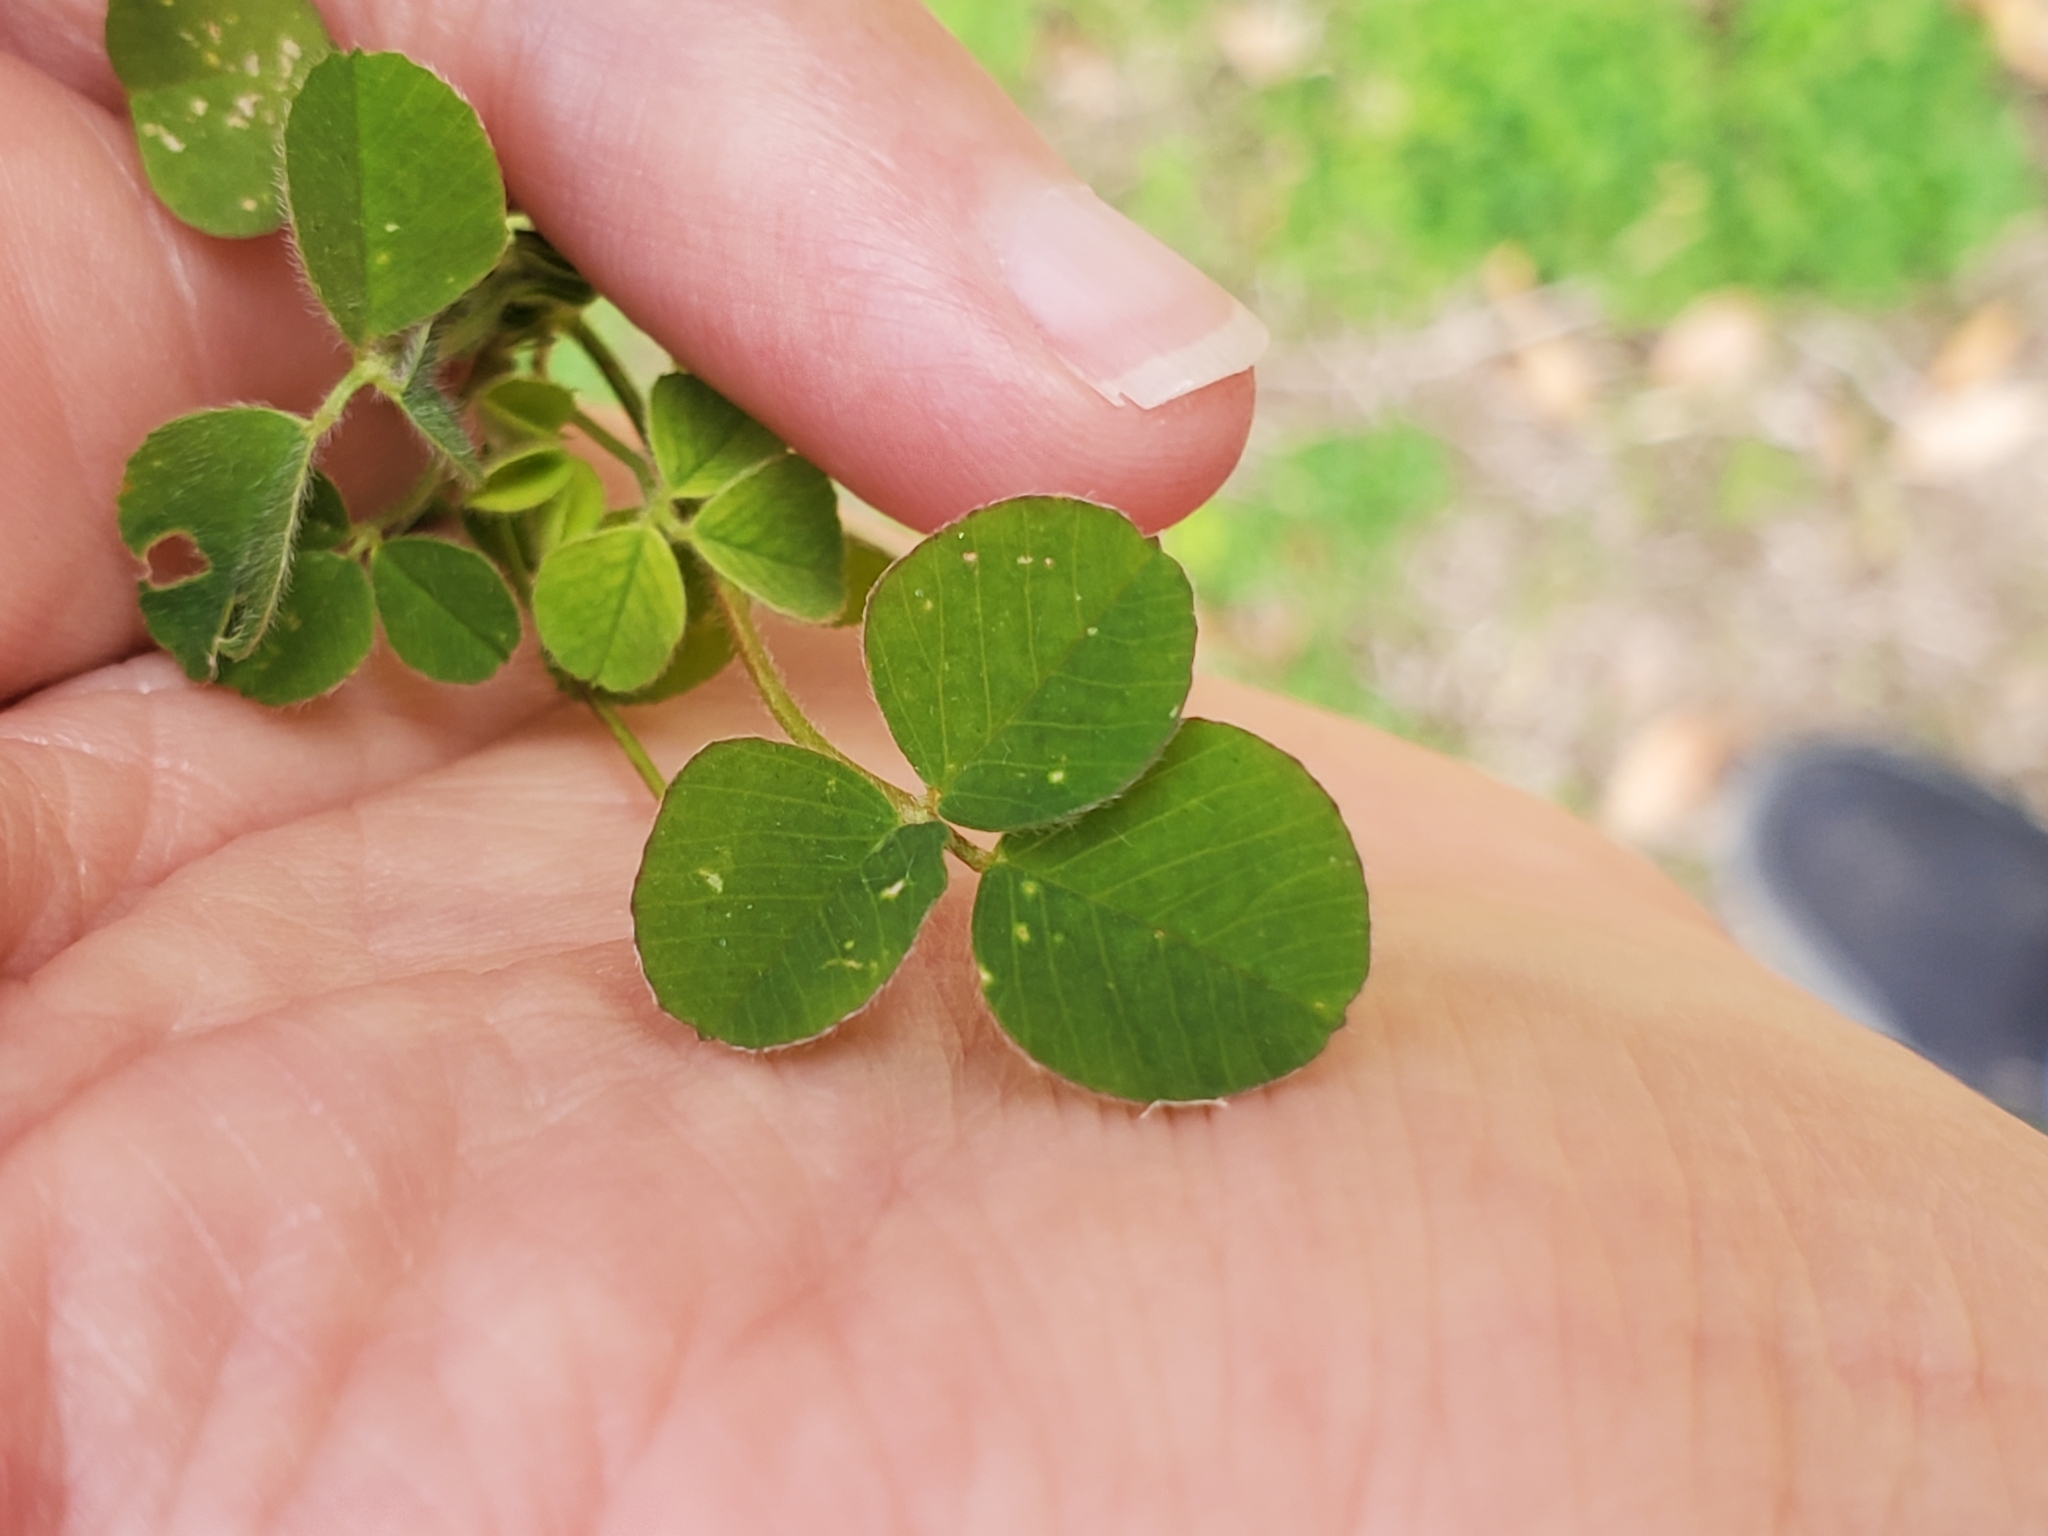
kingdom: Plantae
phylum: Tracheophyta
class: Magnoliopsida
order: Fabales
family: Fabaceae
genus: Medicago
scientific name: Medicago lupulina
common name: Black medick
